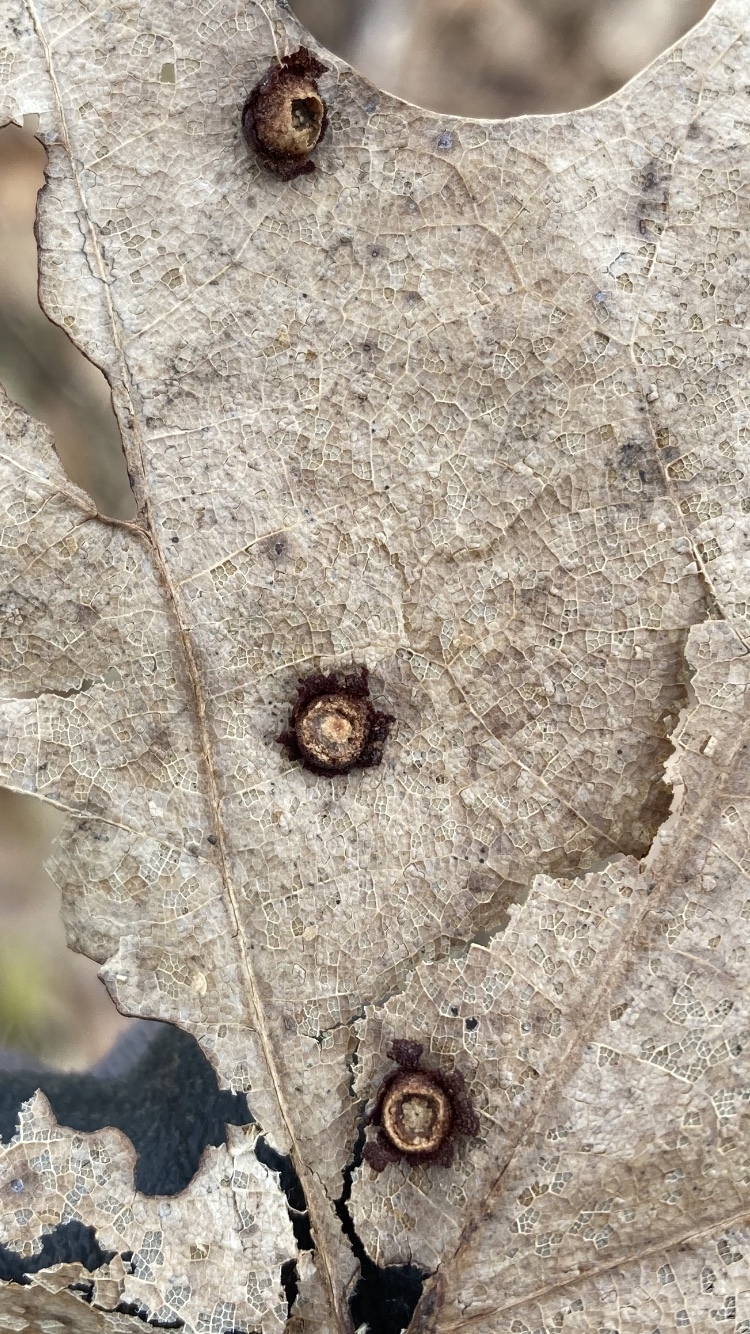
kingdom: Animalia
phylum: Arthropoda
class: Insecta
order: Diptera
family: Cecidomyiidae
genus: Polystepha
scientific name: Polystepha pilulae
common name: Oak leaf gall midge
